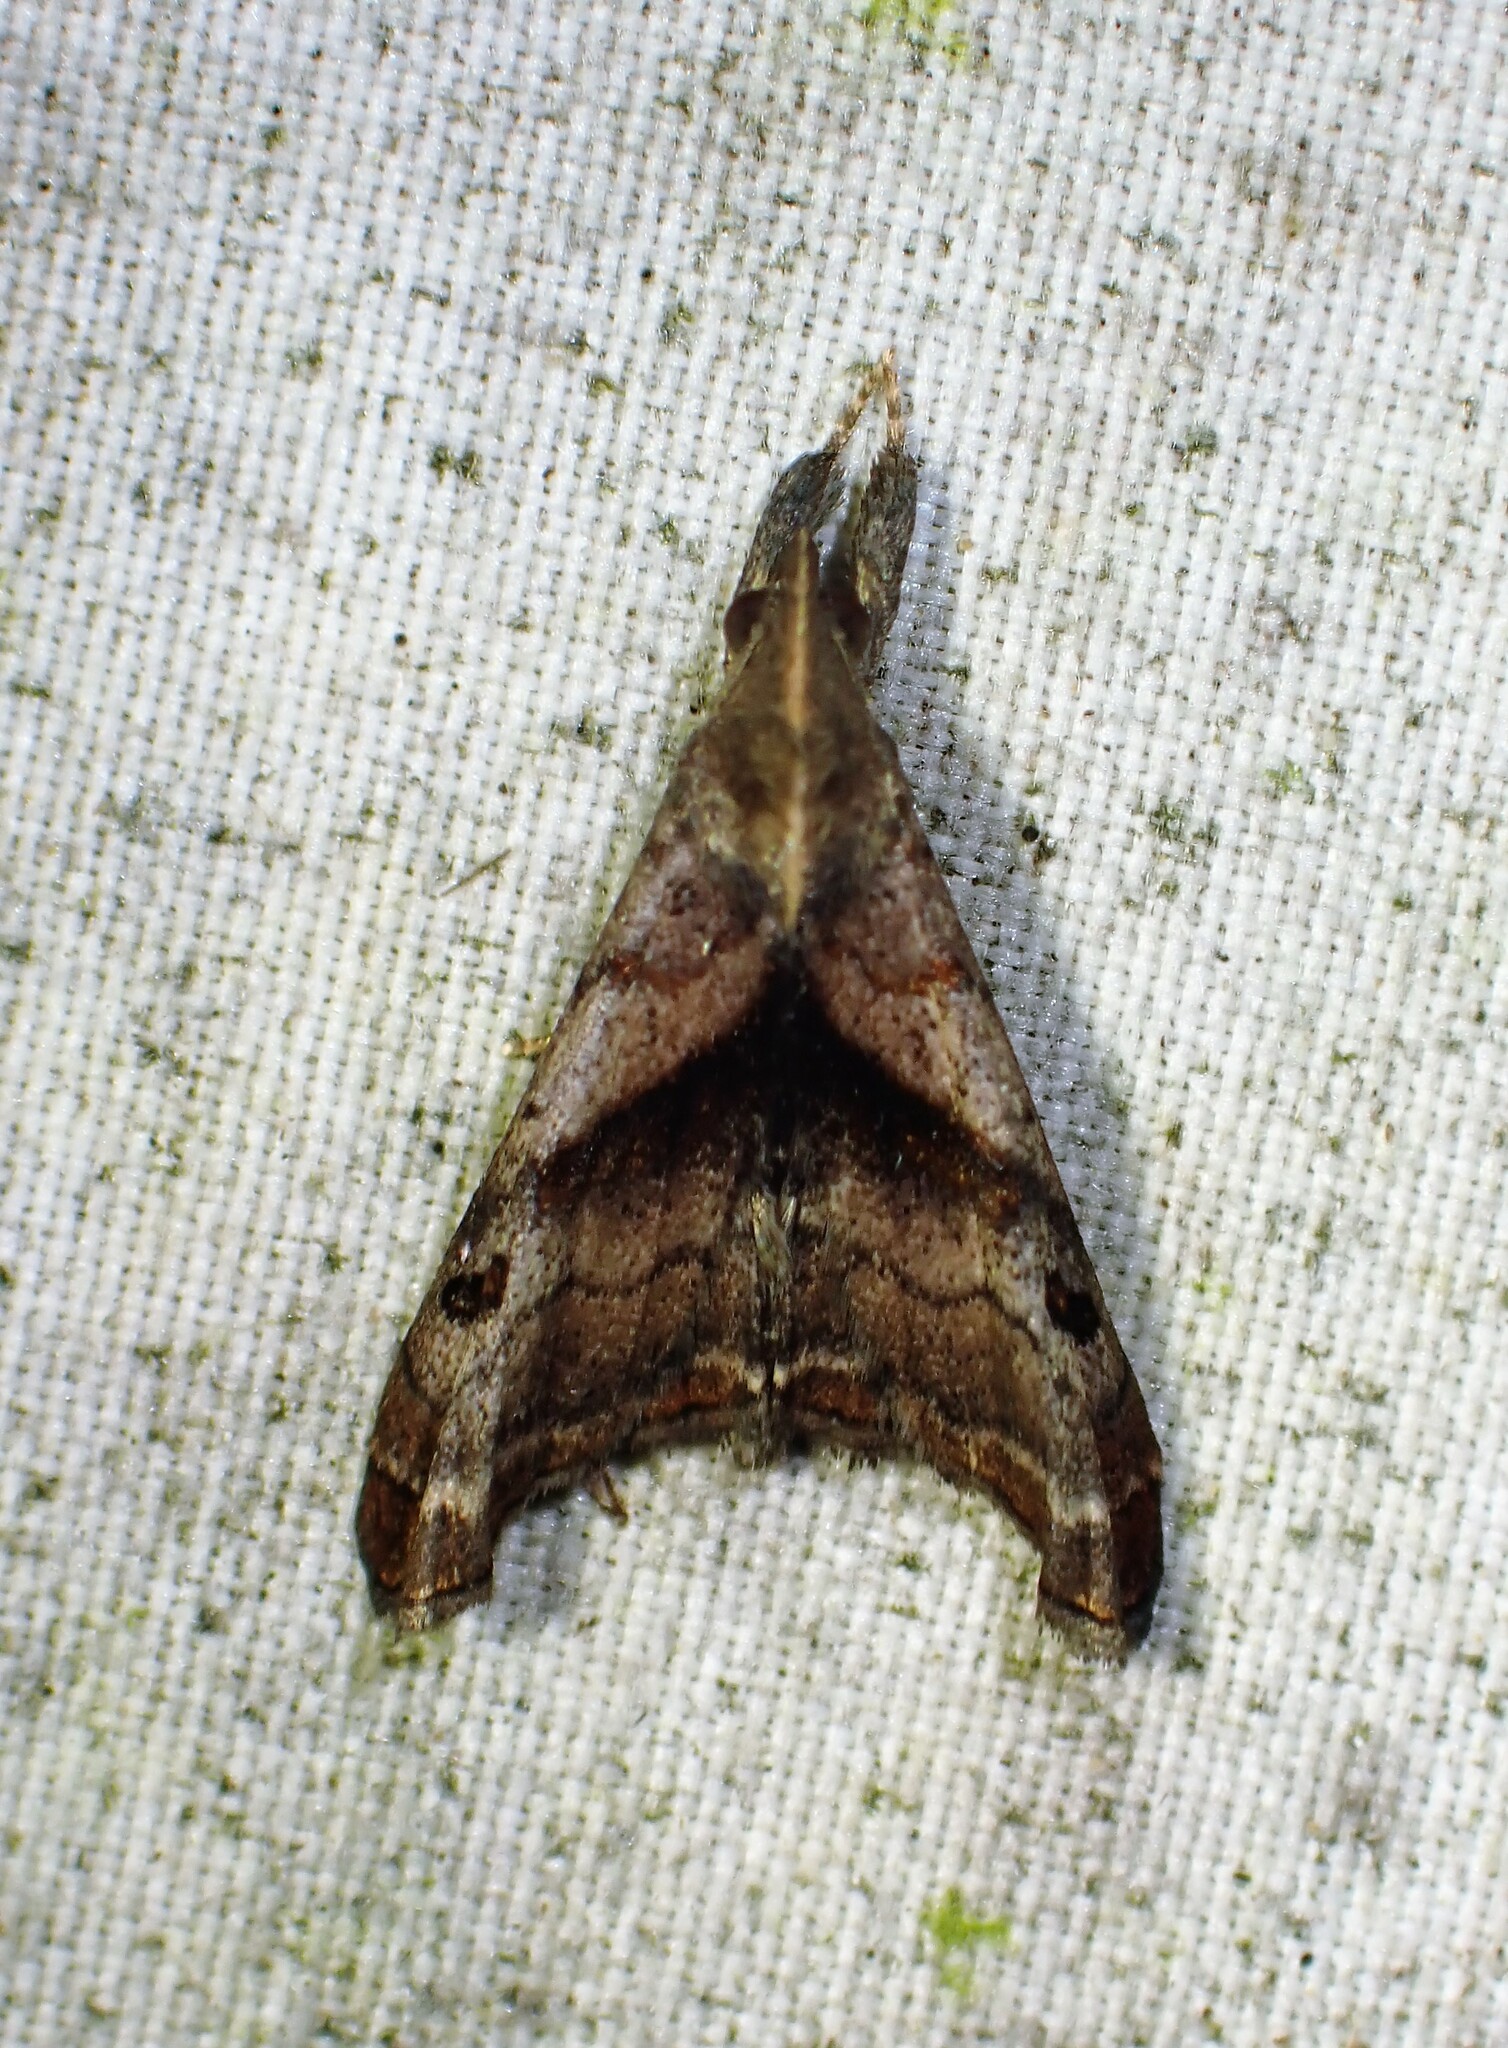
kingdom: Animalia
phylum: Arthropoda
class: Insecta
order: Lepidoptera
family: Erebidae
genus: Palthis
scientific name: Palthis angulalis
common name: Dark-spotted palthis moth
